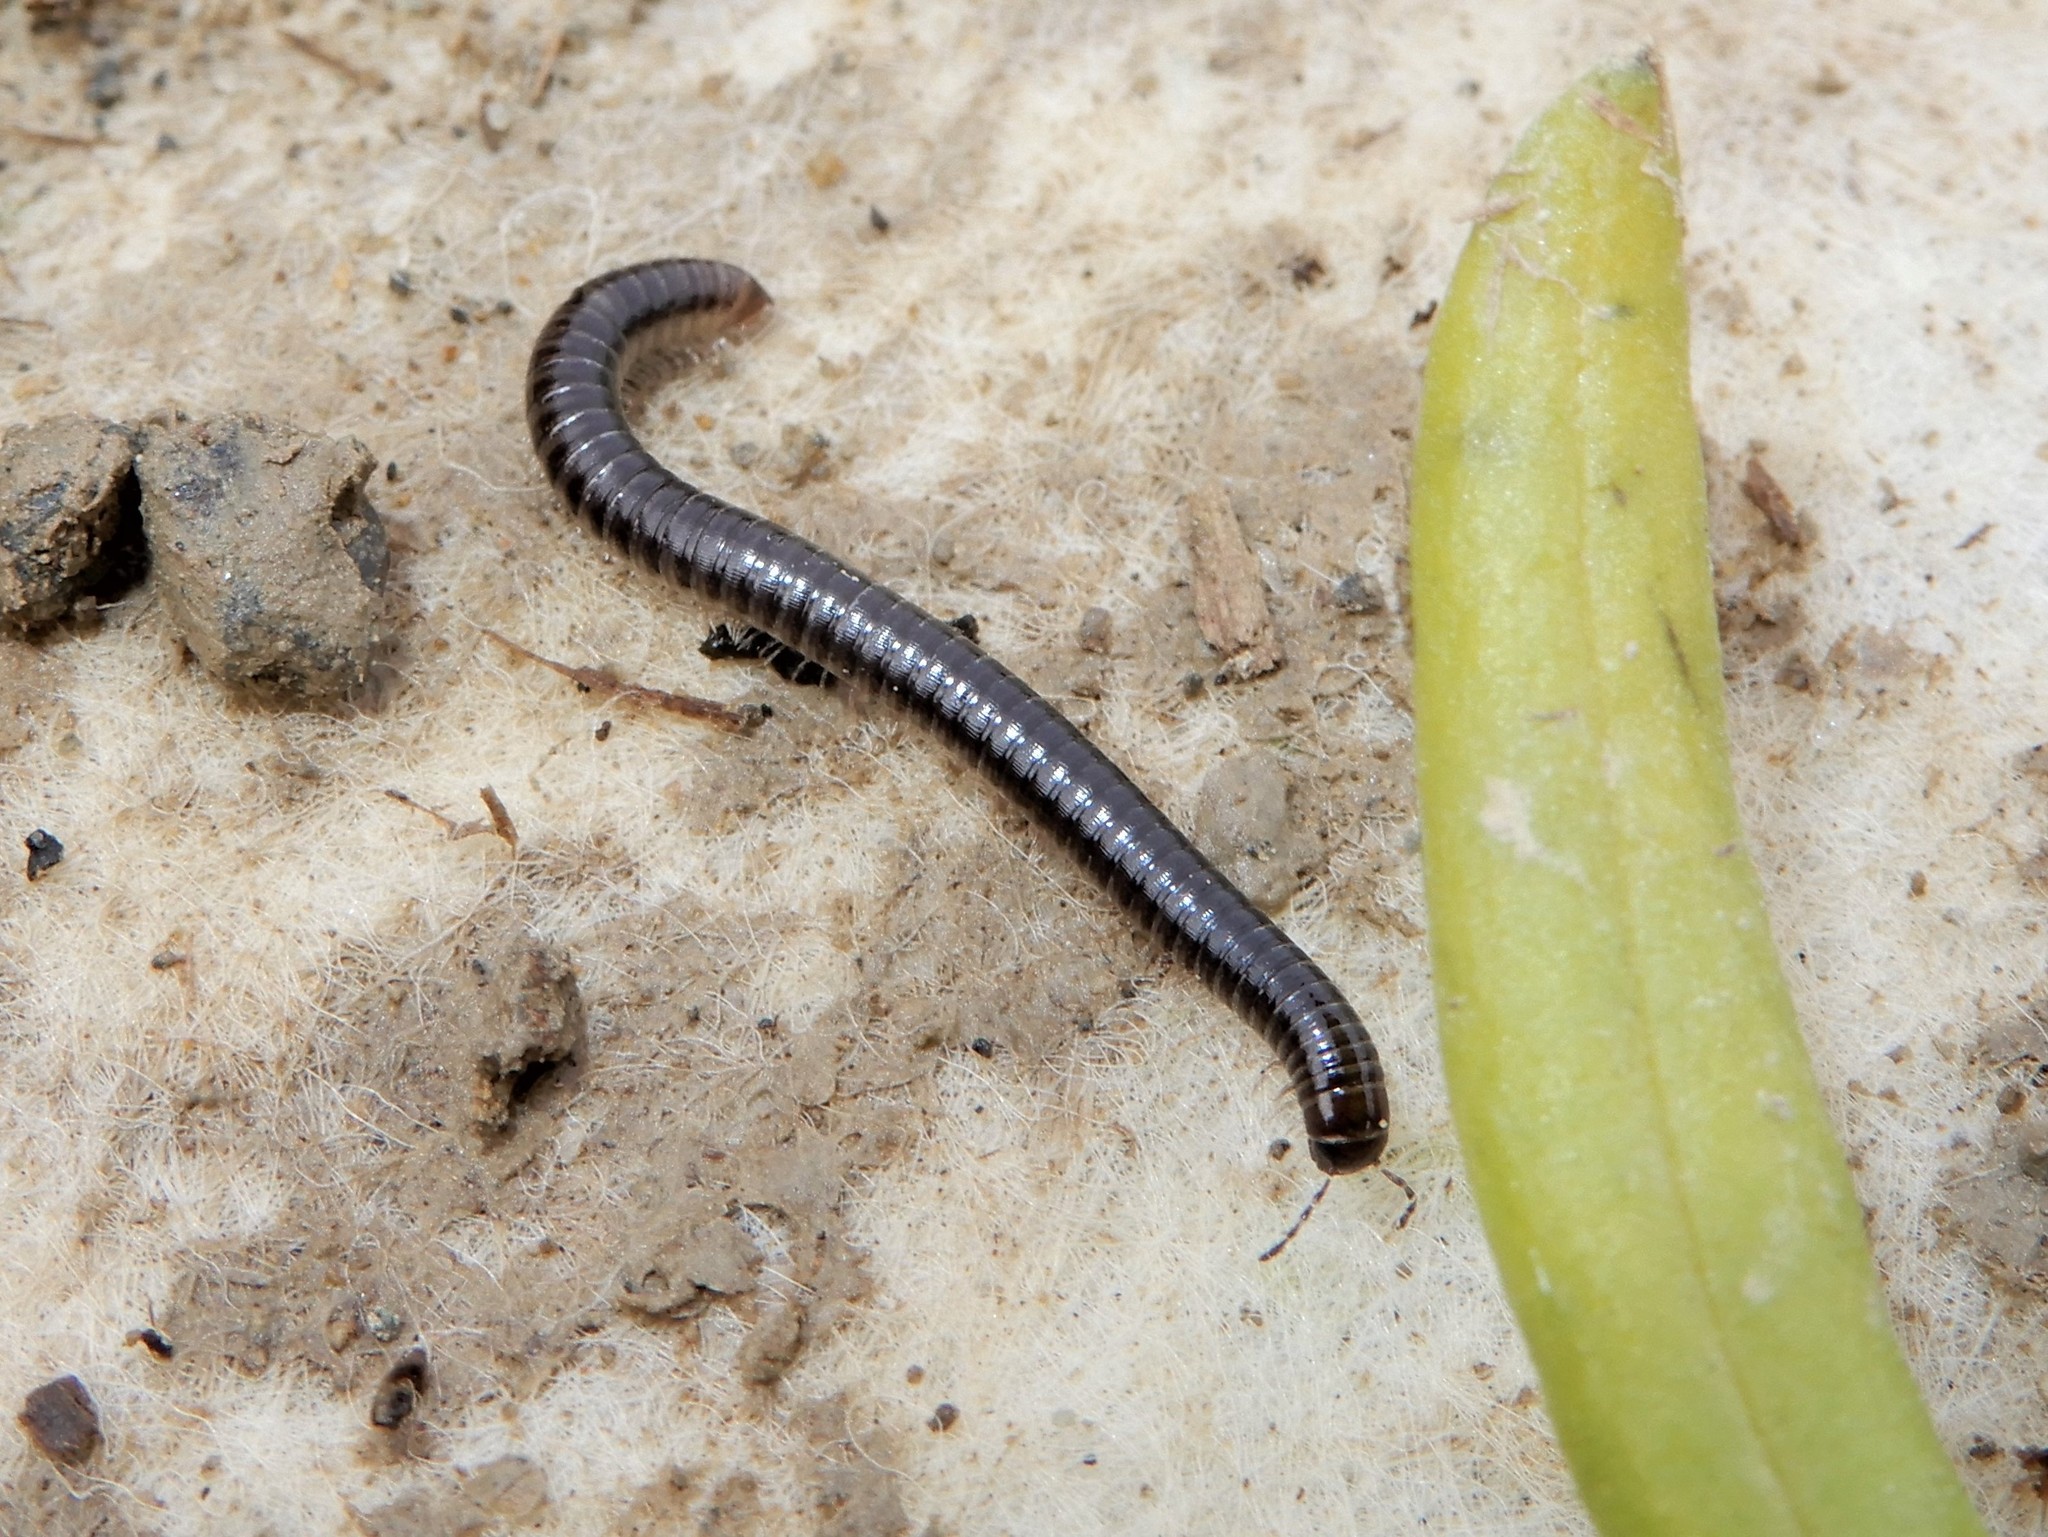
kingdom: Animalia
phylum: Arthropoda
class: Diplopoda
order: Julida
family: Julidae
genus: Ophyiulus
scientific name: Ophyiulus pilosus
